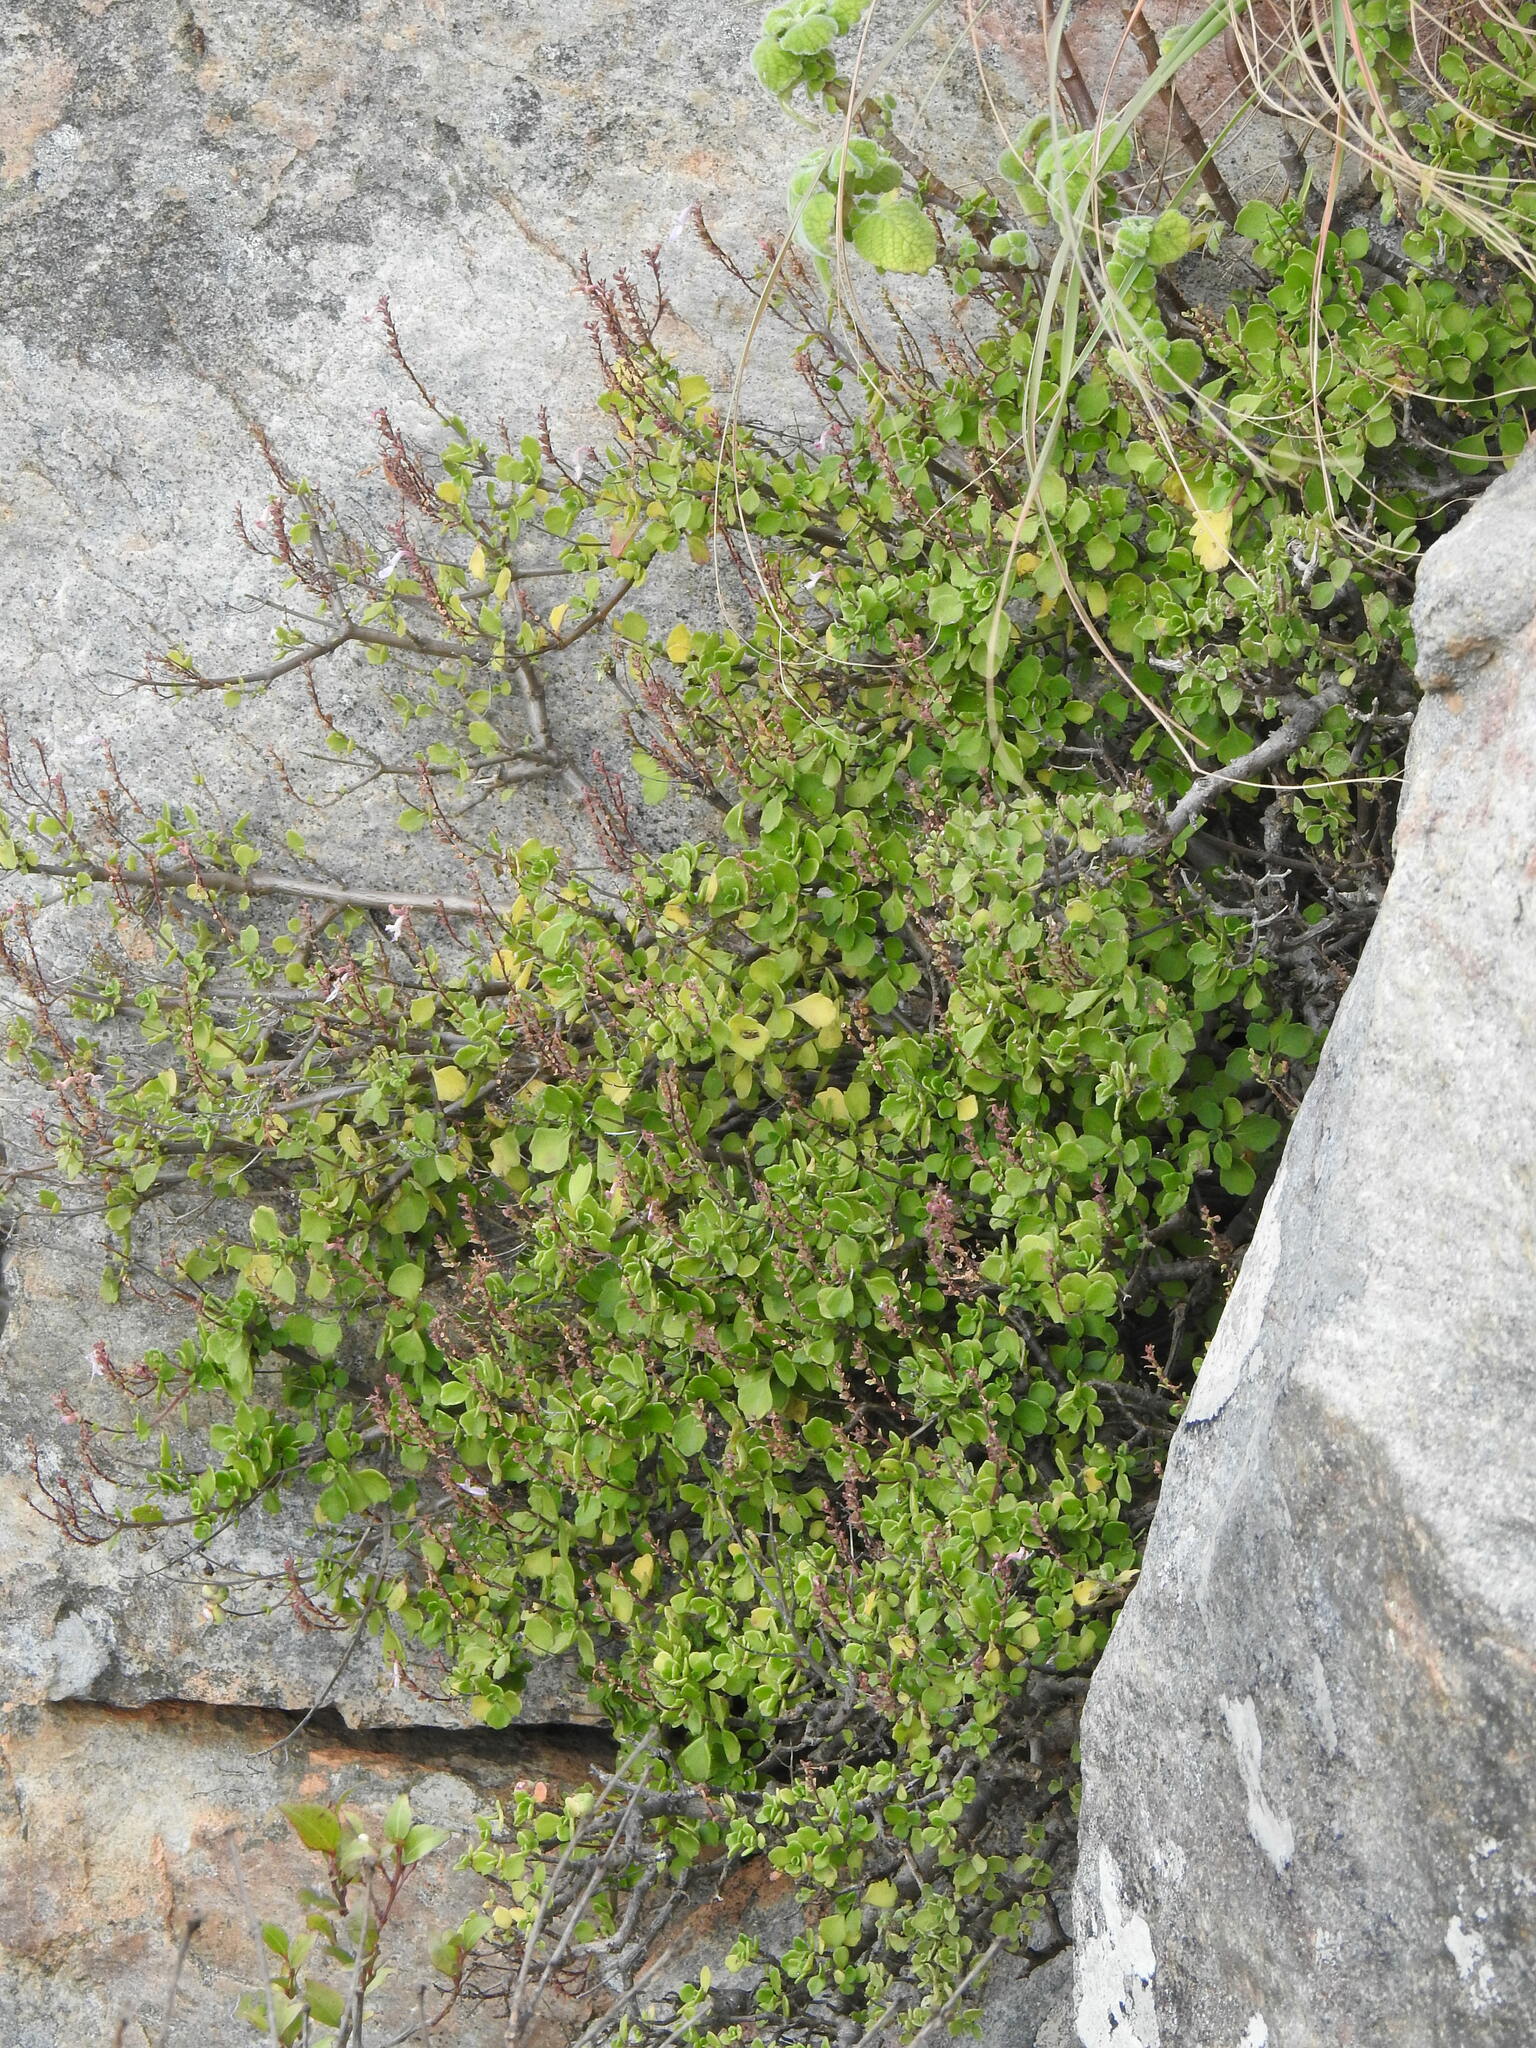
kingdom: Plantae
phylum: Tracheophyta
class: Magnoliopsida
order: Lamiales
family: Lamiaceae
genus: Aeollanthus
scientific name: Aeollanthus parvifolius
